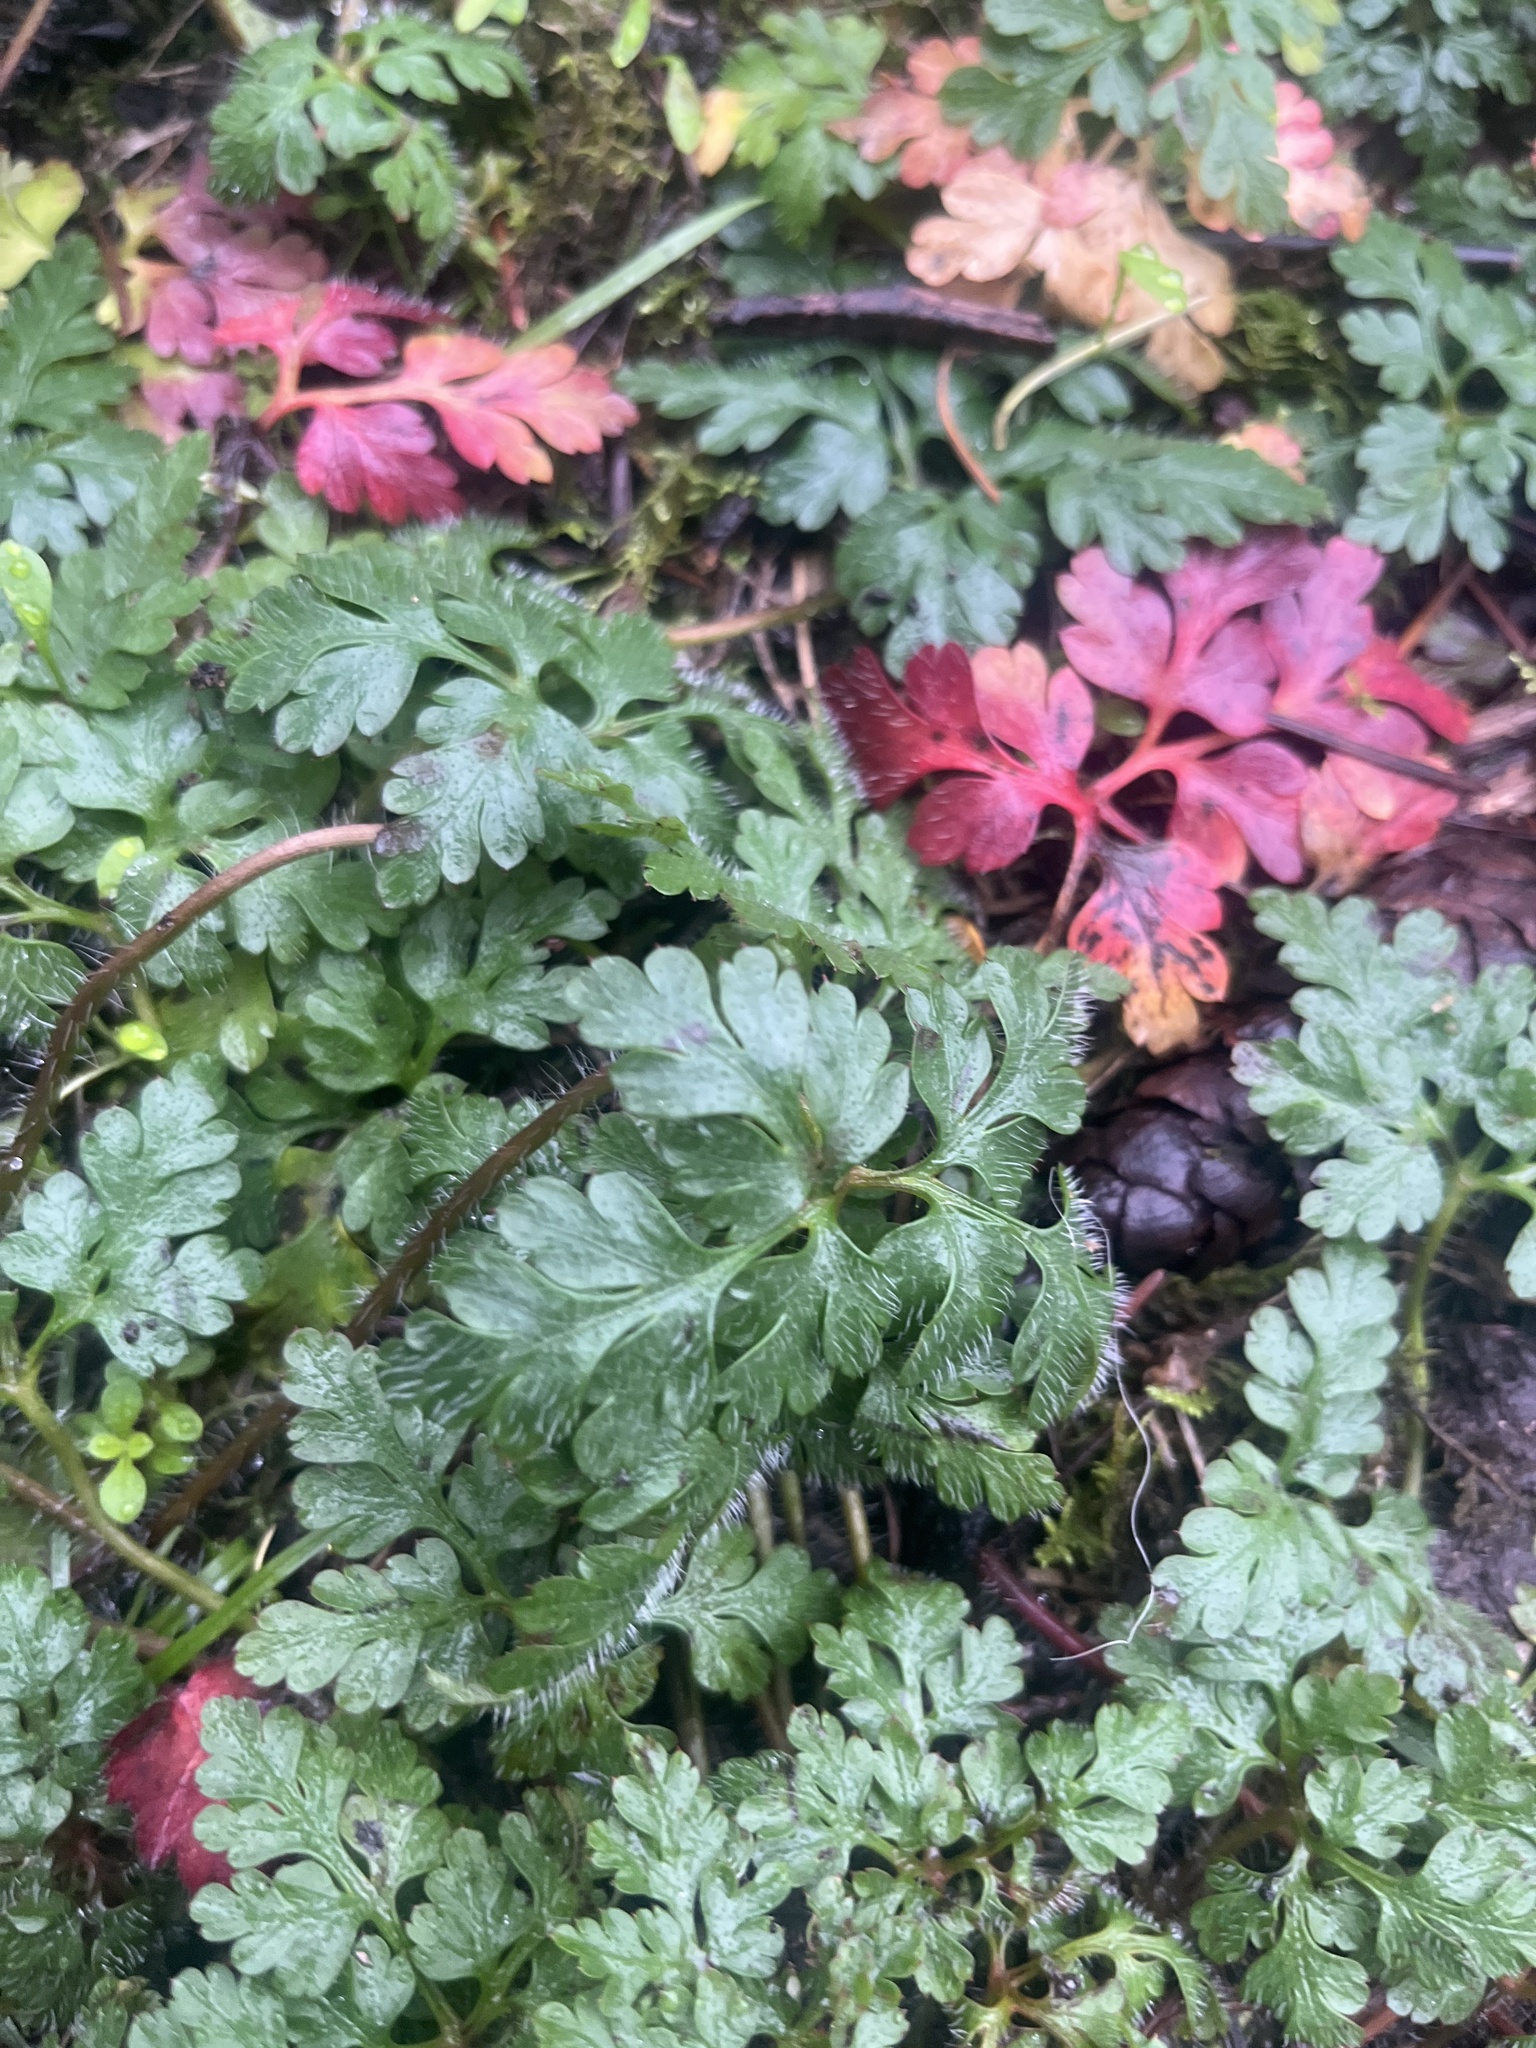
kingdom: Plantae
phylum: Tracheophyta
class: Magnoliopsida
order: Geraniales
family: Geraniaceae
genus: Geranium
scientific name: Geranium robertianum
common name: Herb-robert
